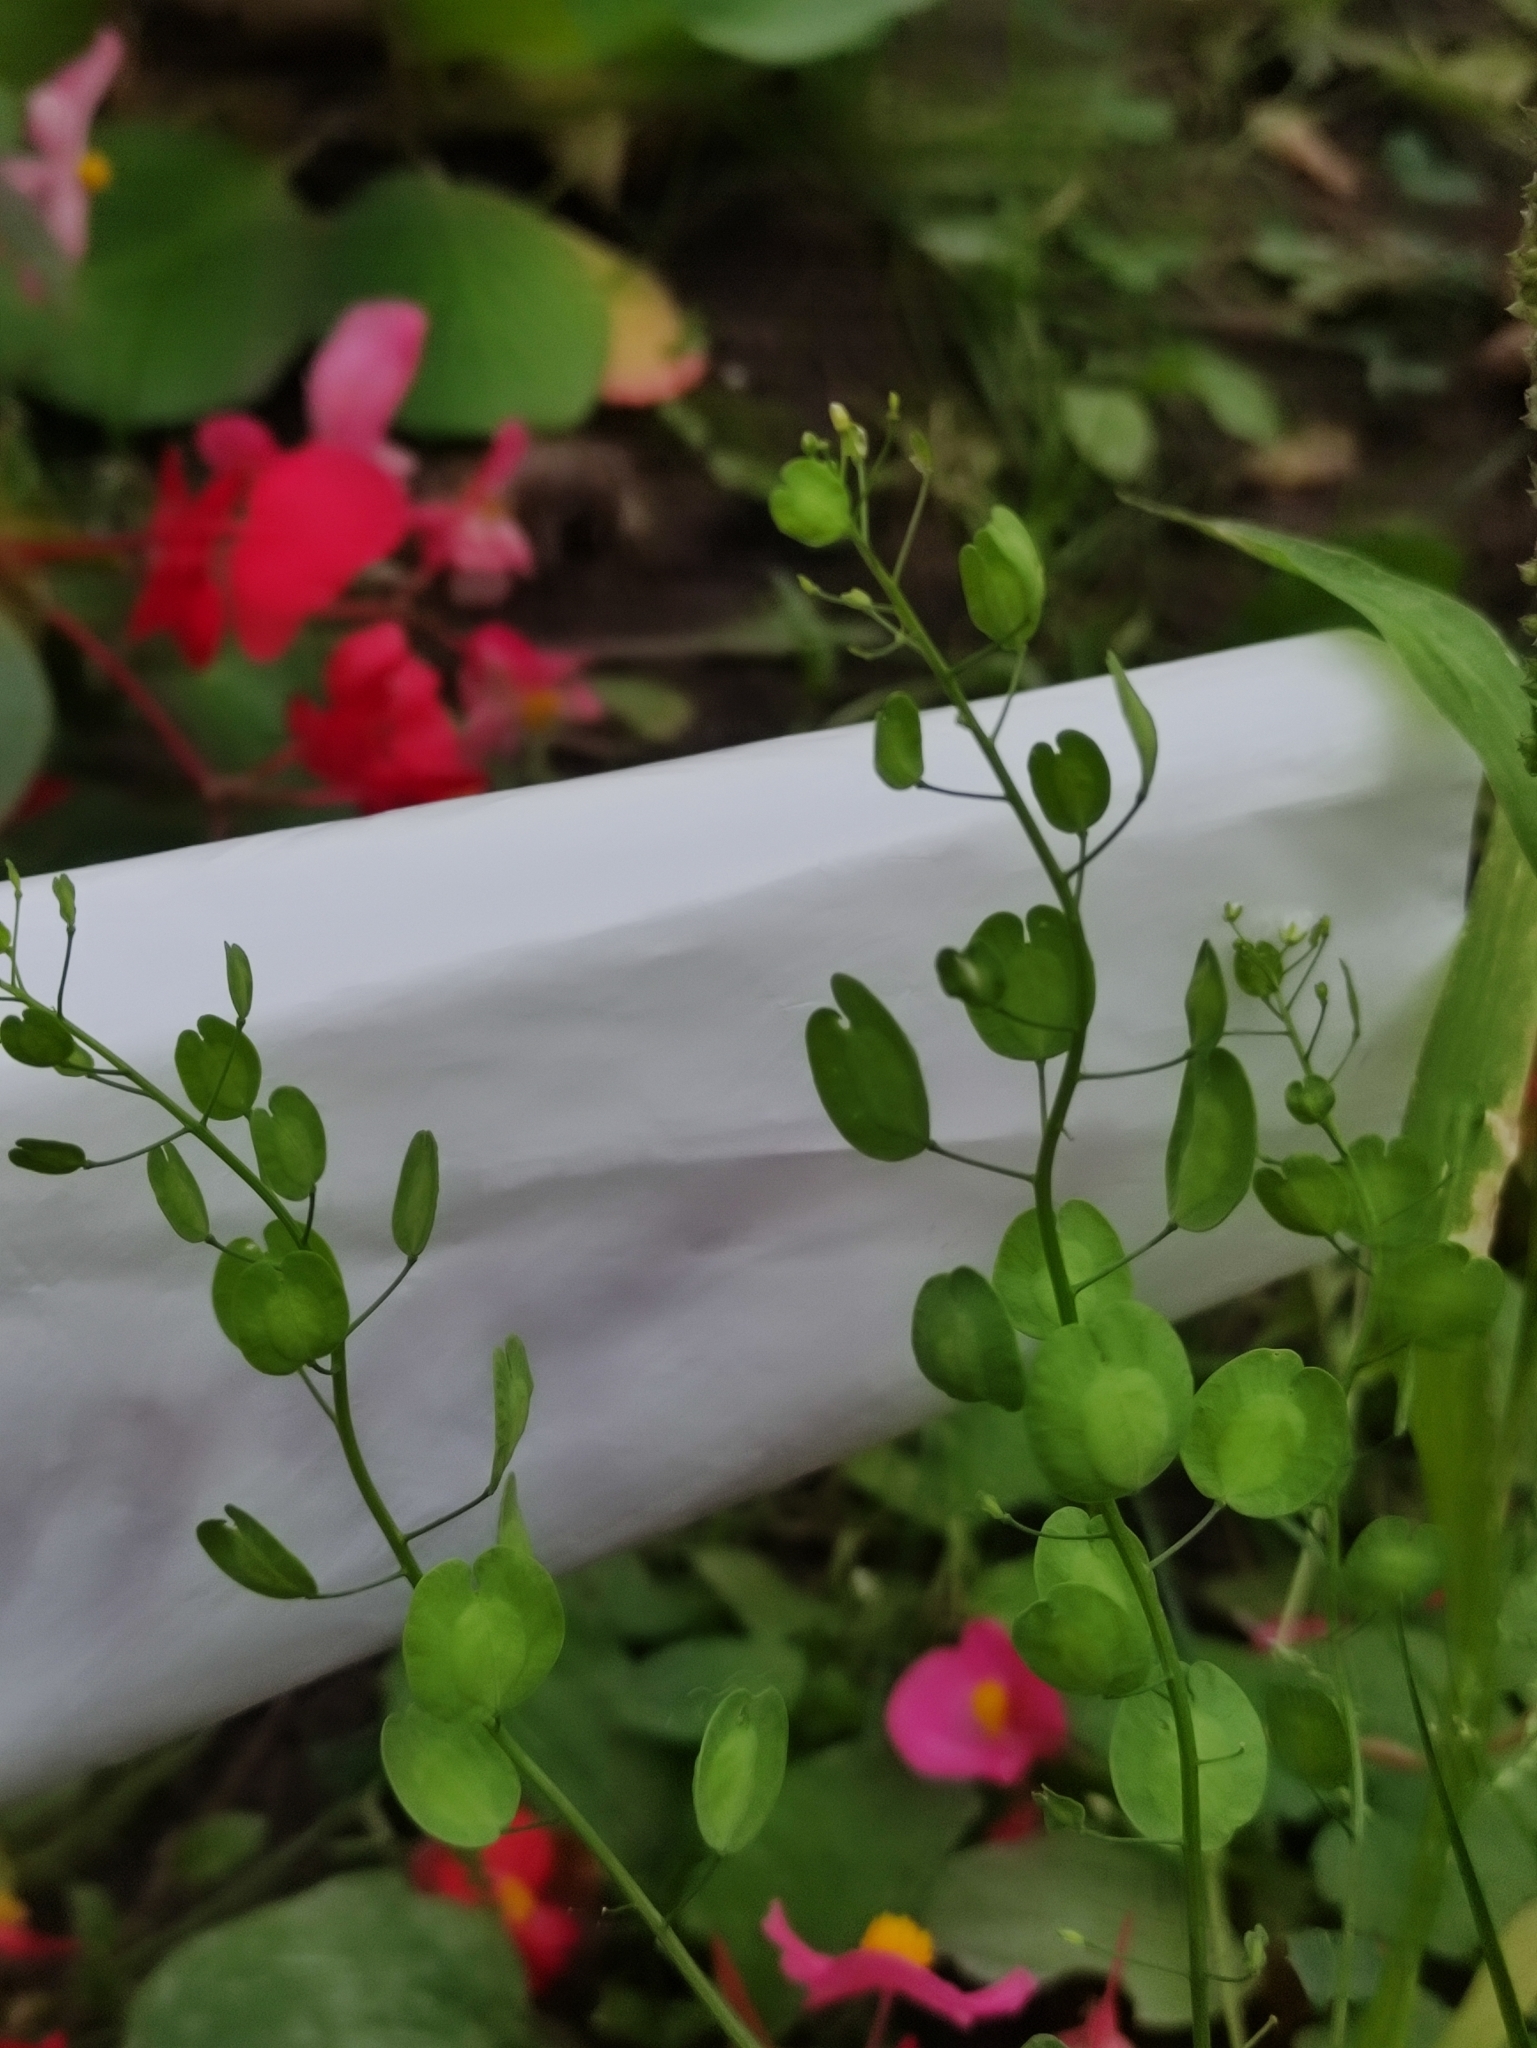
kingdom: Plantae
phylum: Tracheophyta
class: Magnoliopsida
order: Brassicales
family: Brassicaceae
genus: Thlaspi
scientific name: Thlaspi arvense
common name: Field pennycress
